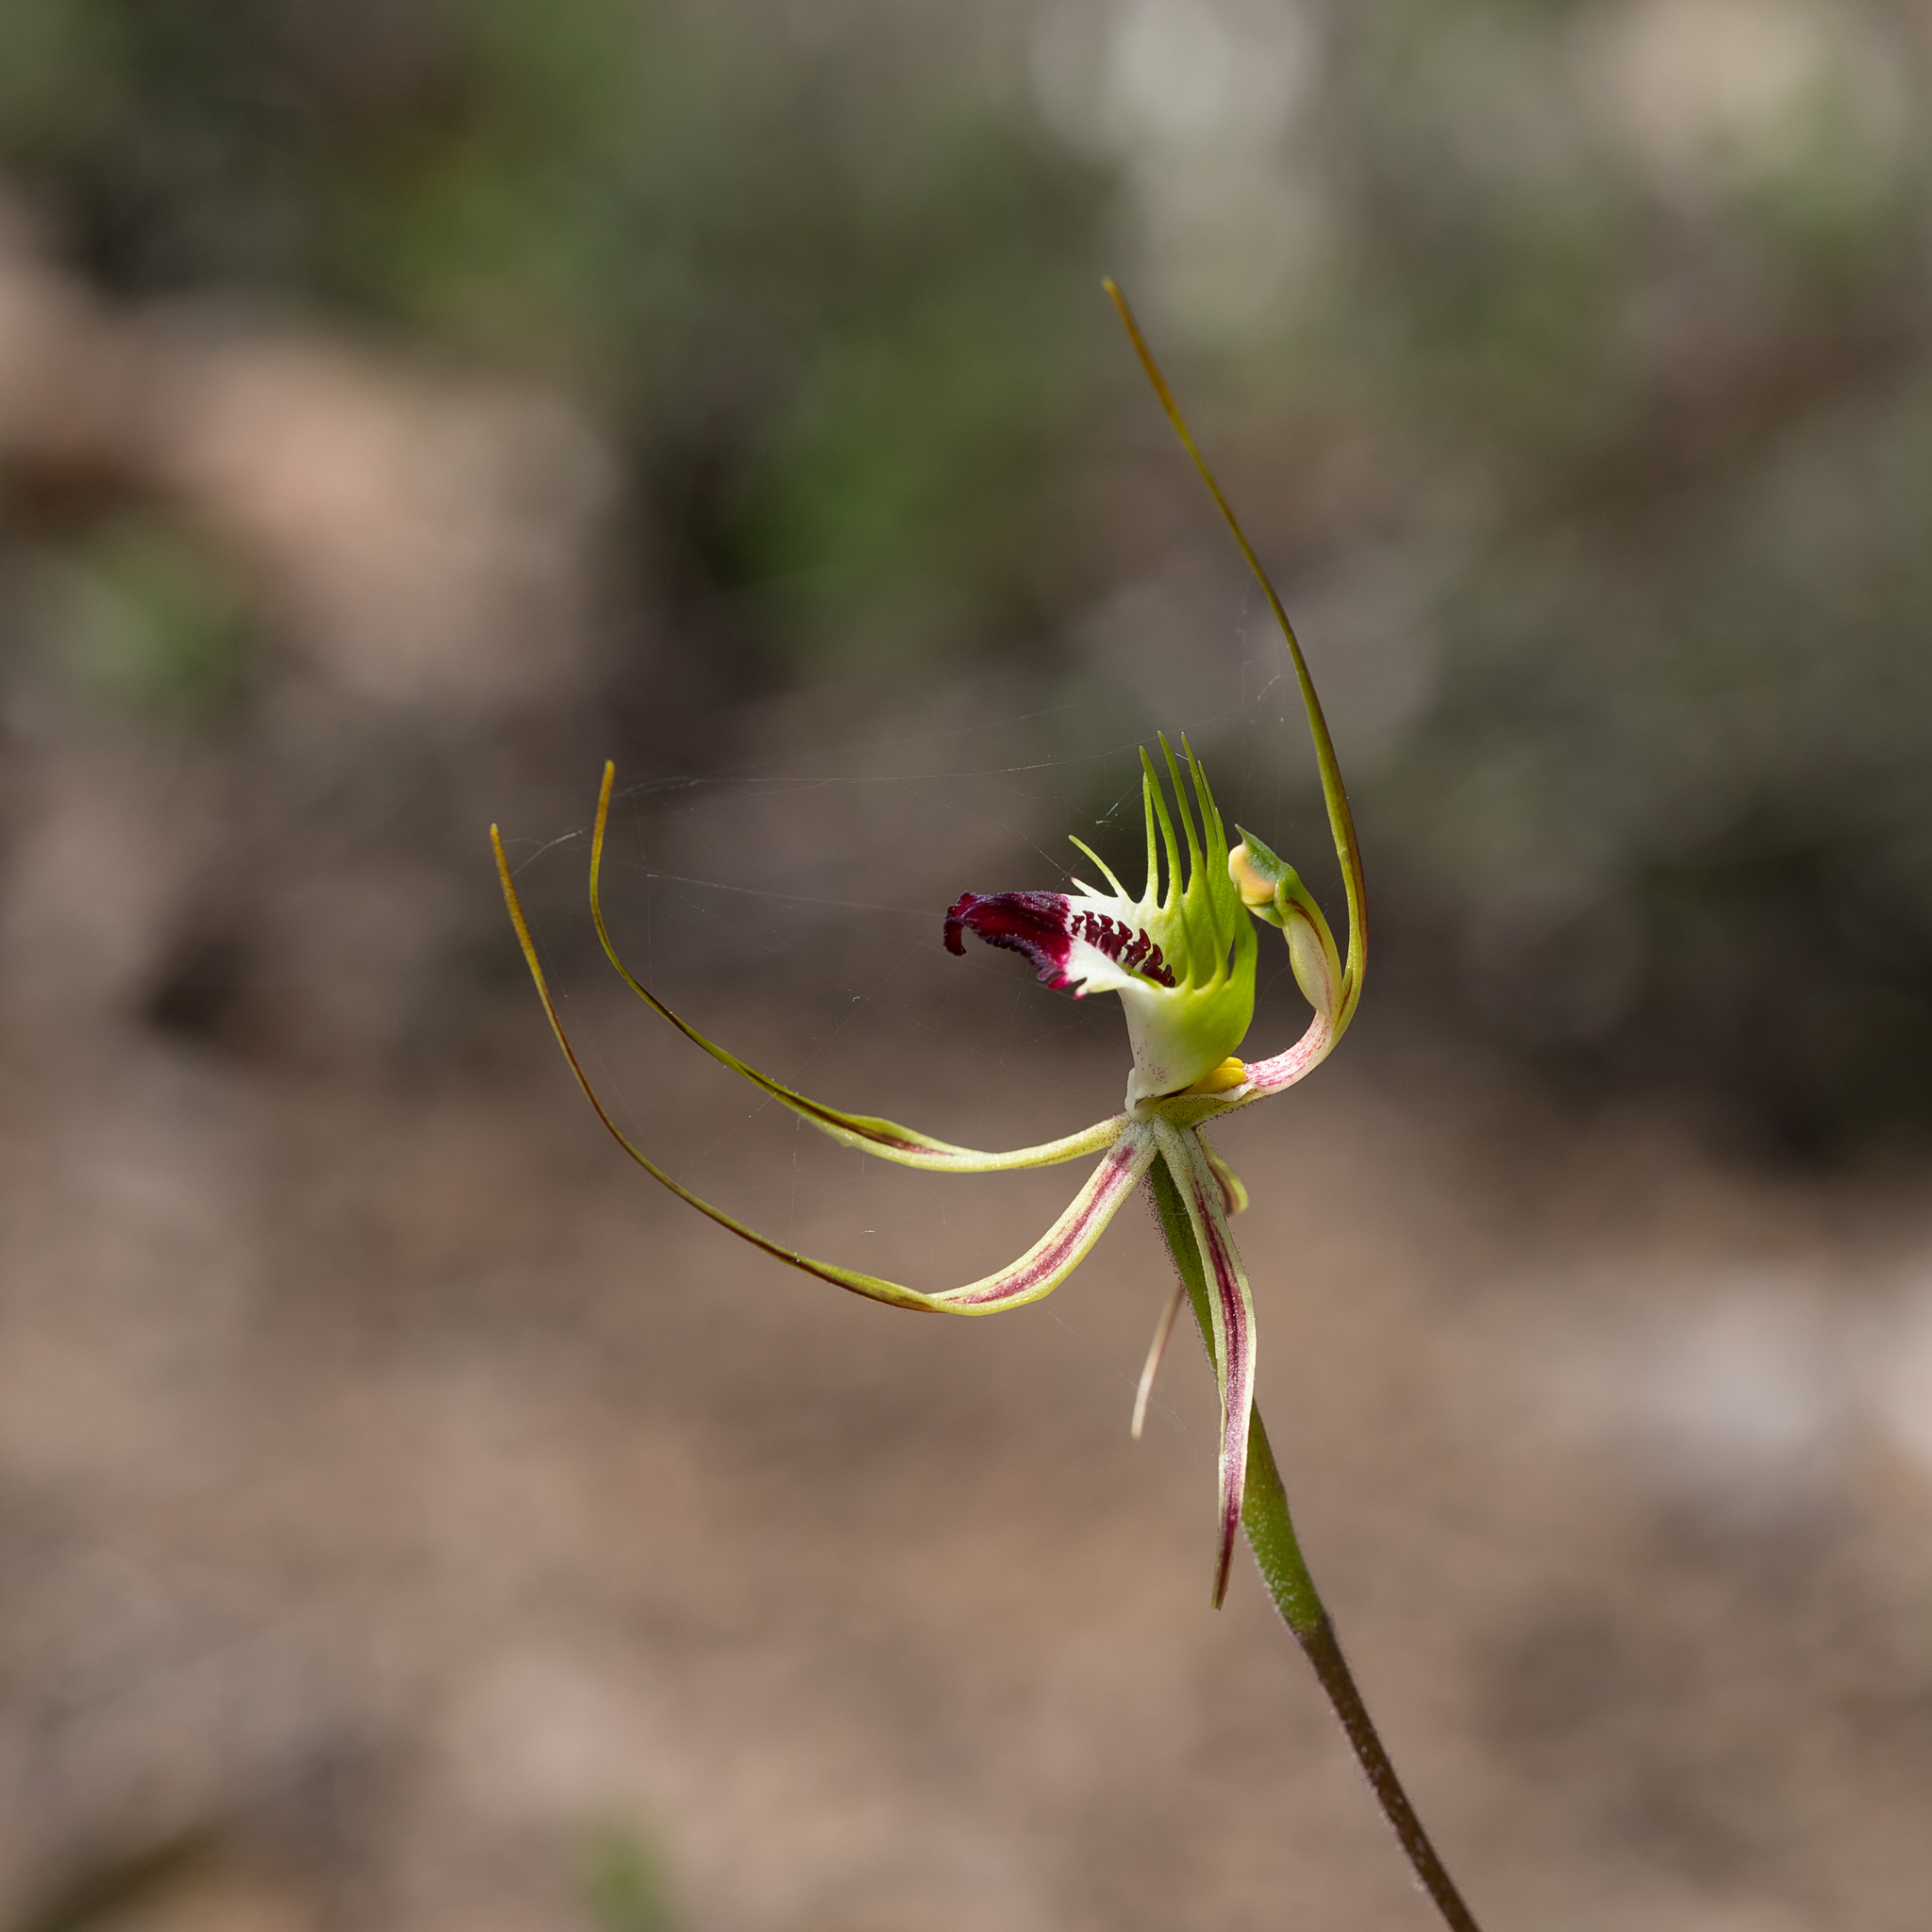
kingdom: Plantae
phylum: Tracheophyta
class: Liliopsida
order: Asparagales
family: Orchidaceae
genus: Caladenia
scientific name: Caladenia tentaculata
